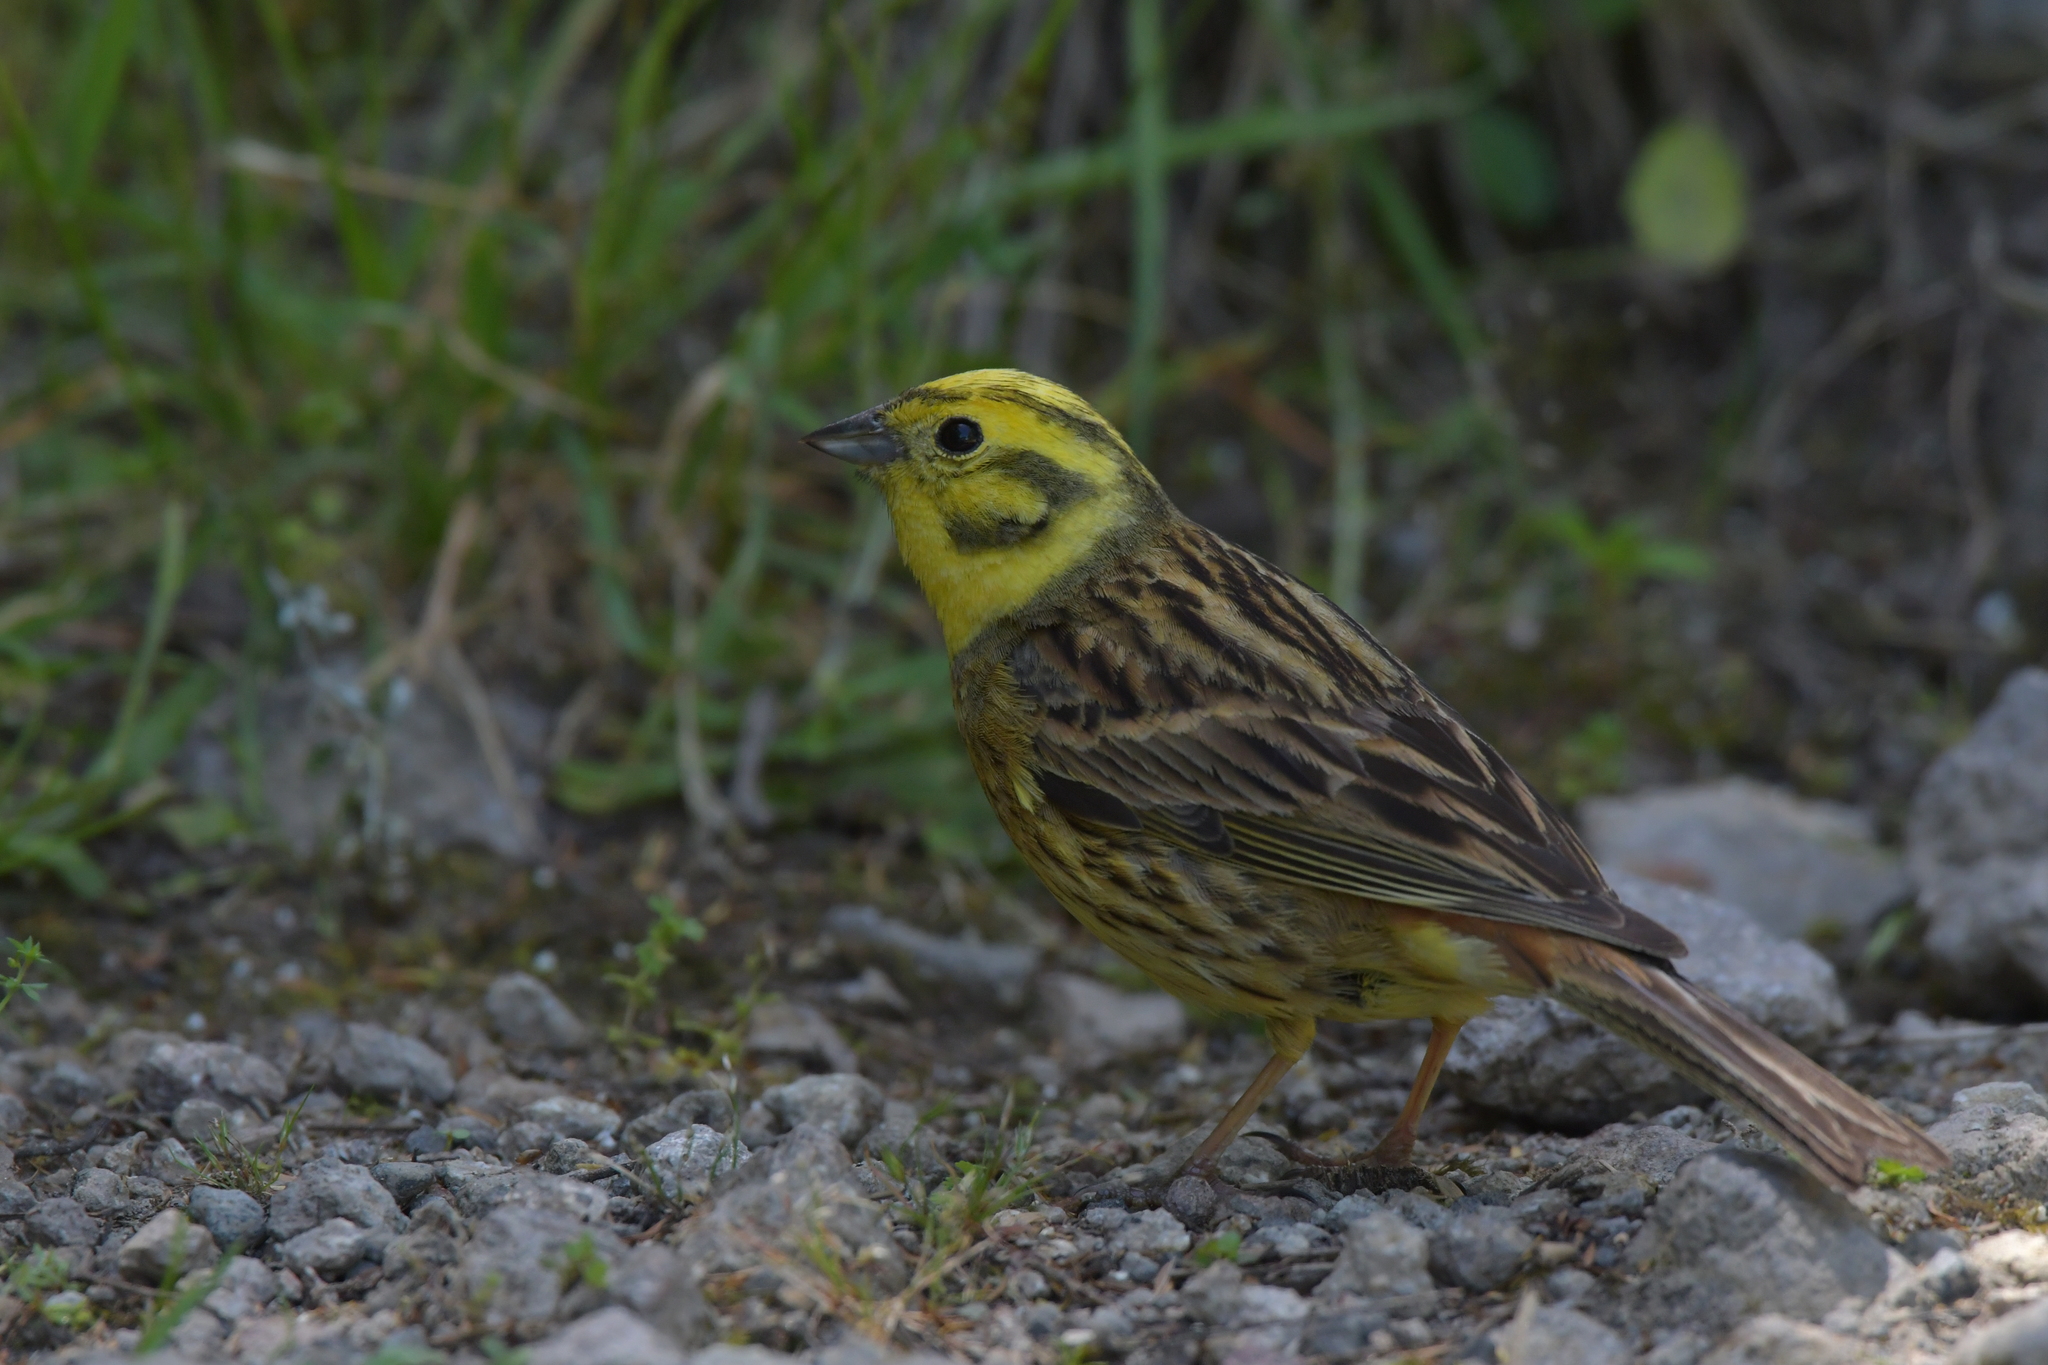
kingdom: Animalia
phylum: Chordata
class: Aves
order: Passeriformes
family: Emberizidae
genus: Emberiza
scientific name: Emberiza citrinella
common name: Yellowhammer
